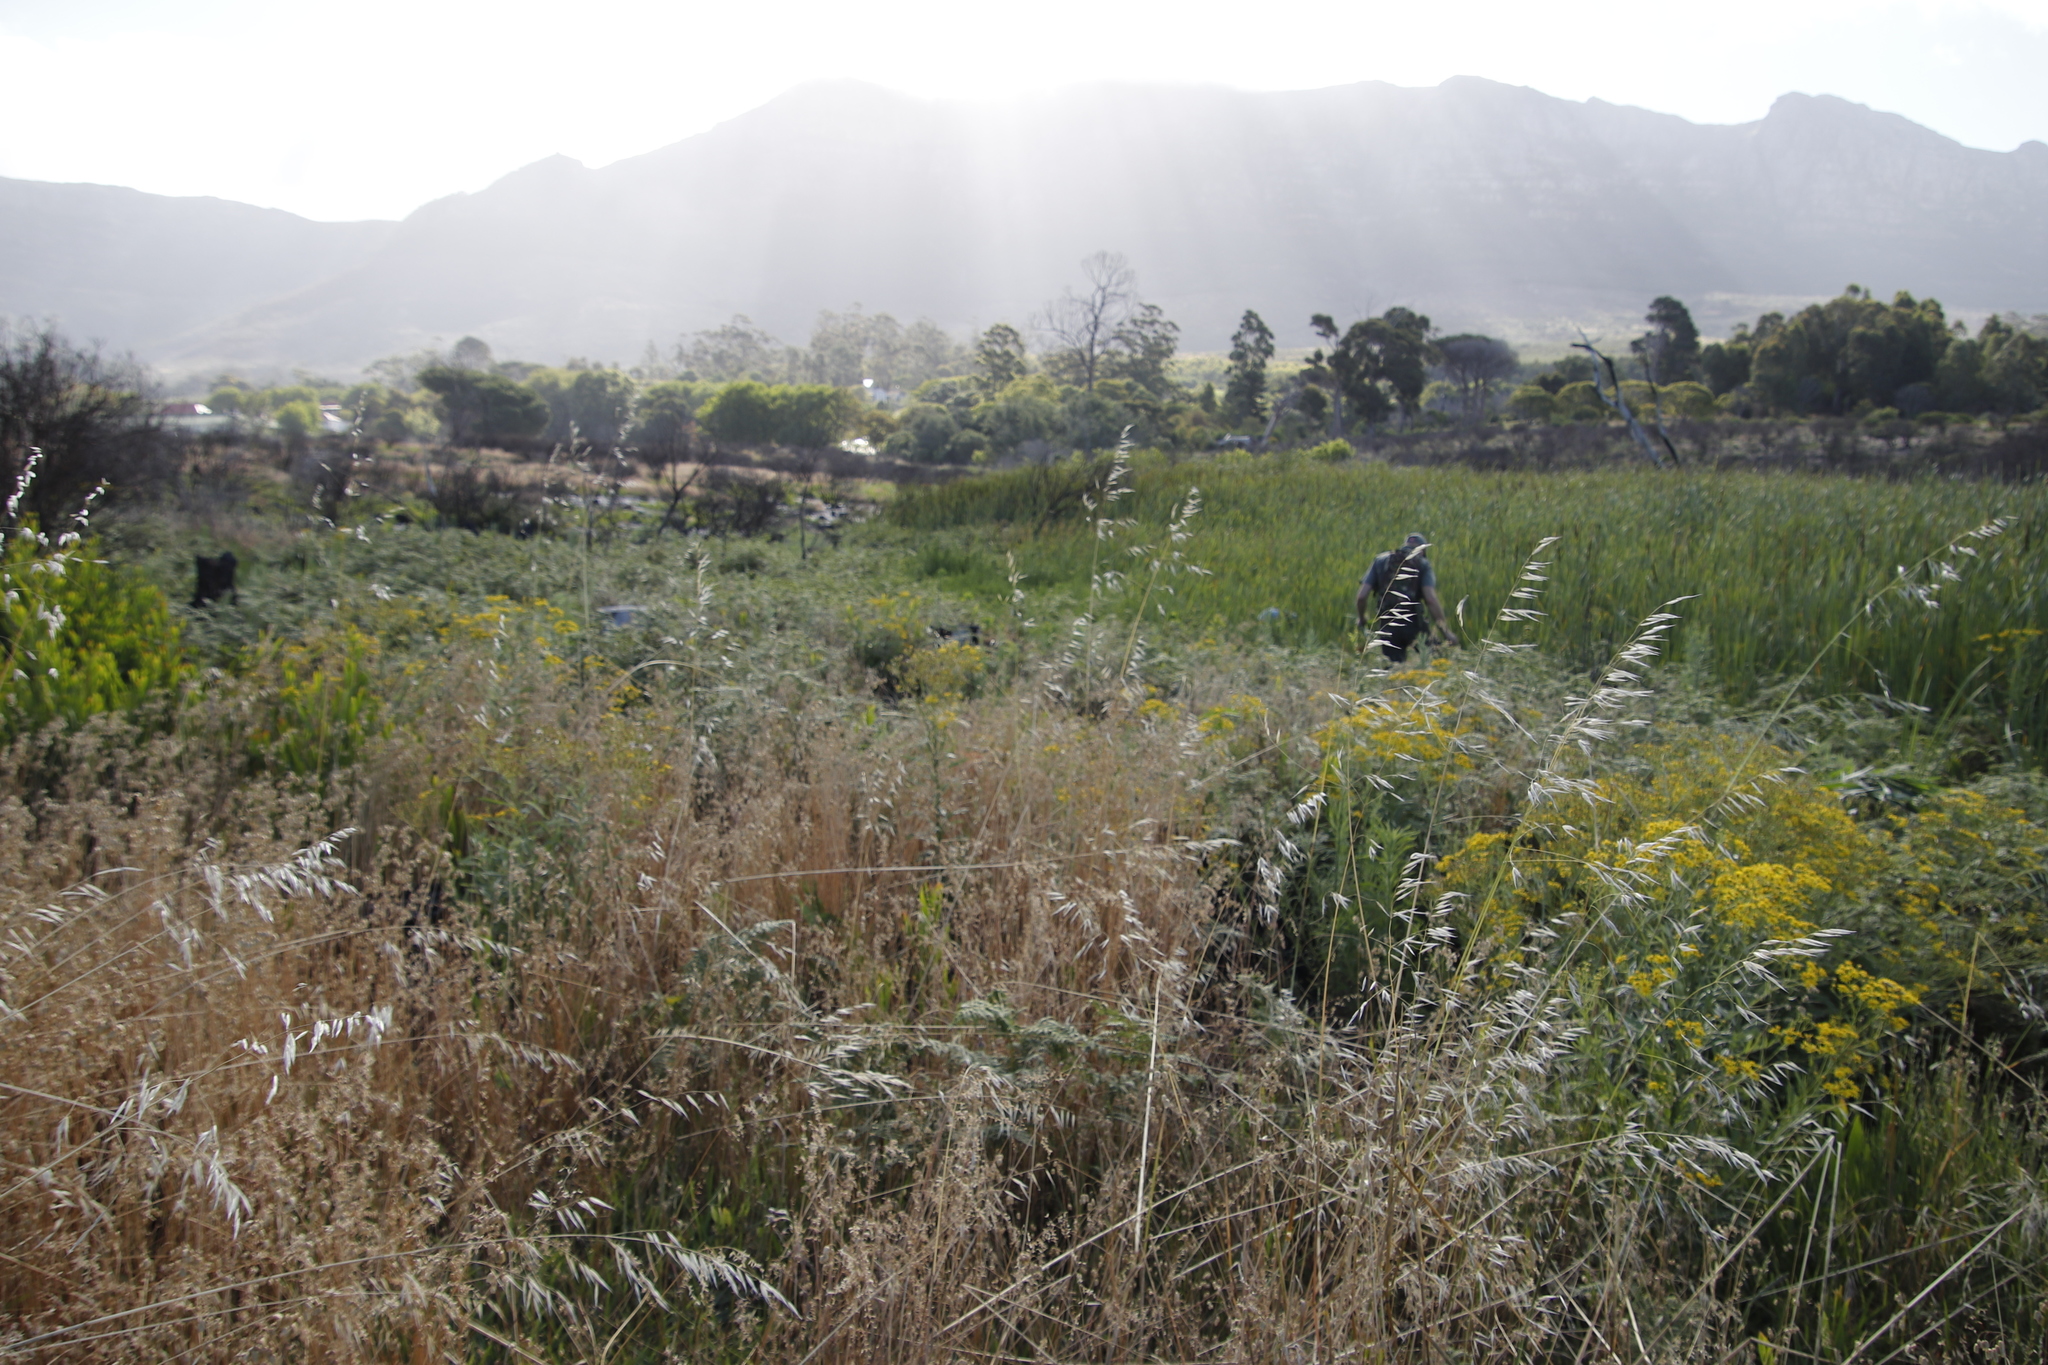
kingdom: Plantae
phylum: Tracheophyta
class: Liliopsida
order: Poales
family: Poaceae
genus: Avena
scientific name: Avena fatua
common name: Wild oat
